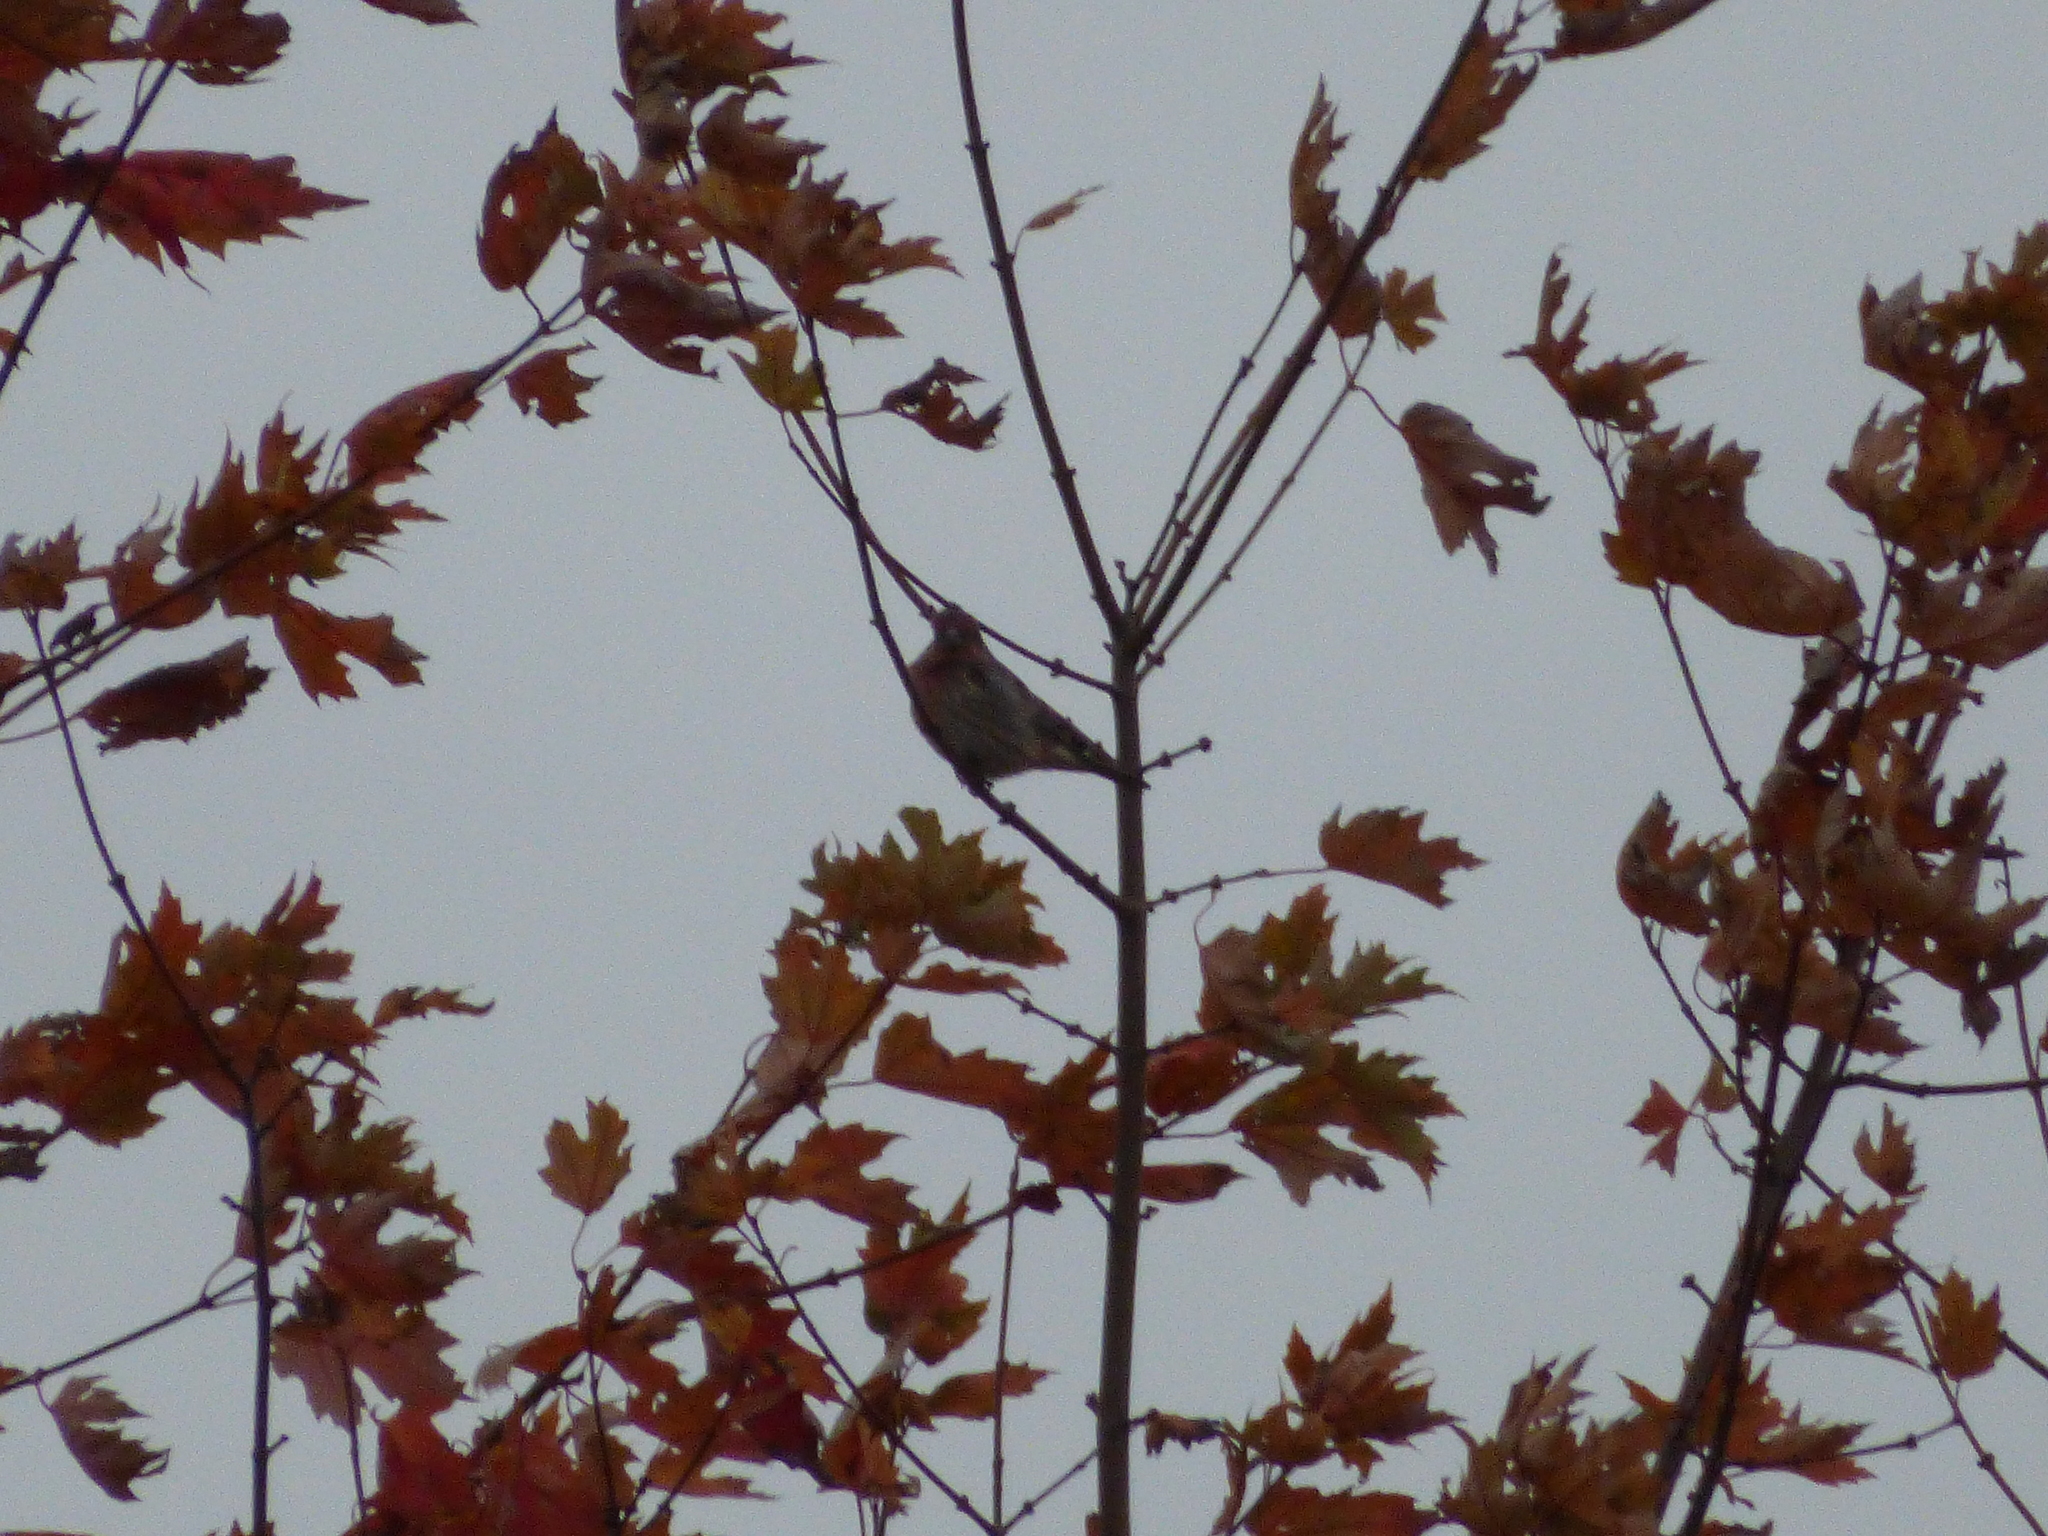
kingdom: Animalia
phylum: Chordata
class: Aves
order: Passeriformes
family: Fringillidae
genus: Haemorhous
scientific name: Haemorhous mexicanus
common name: House finch
